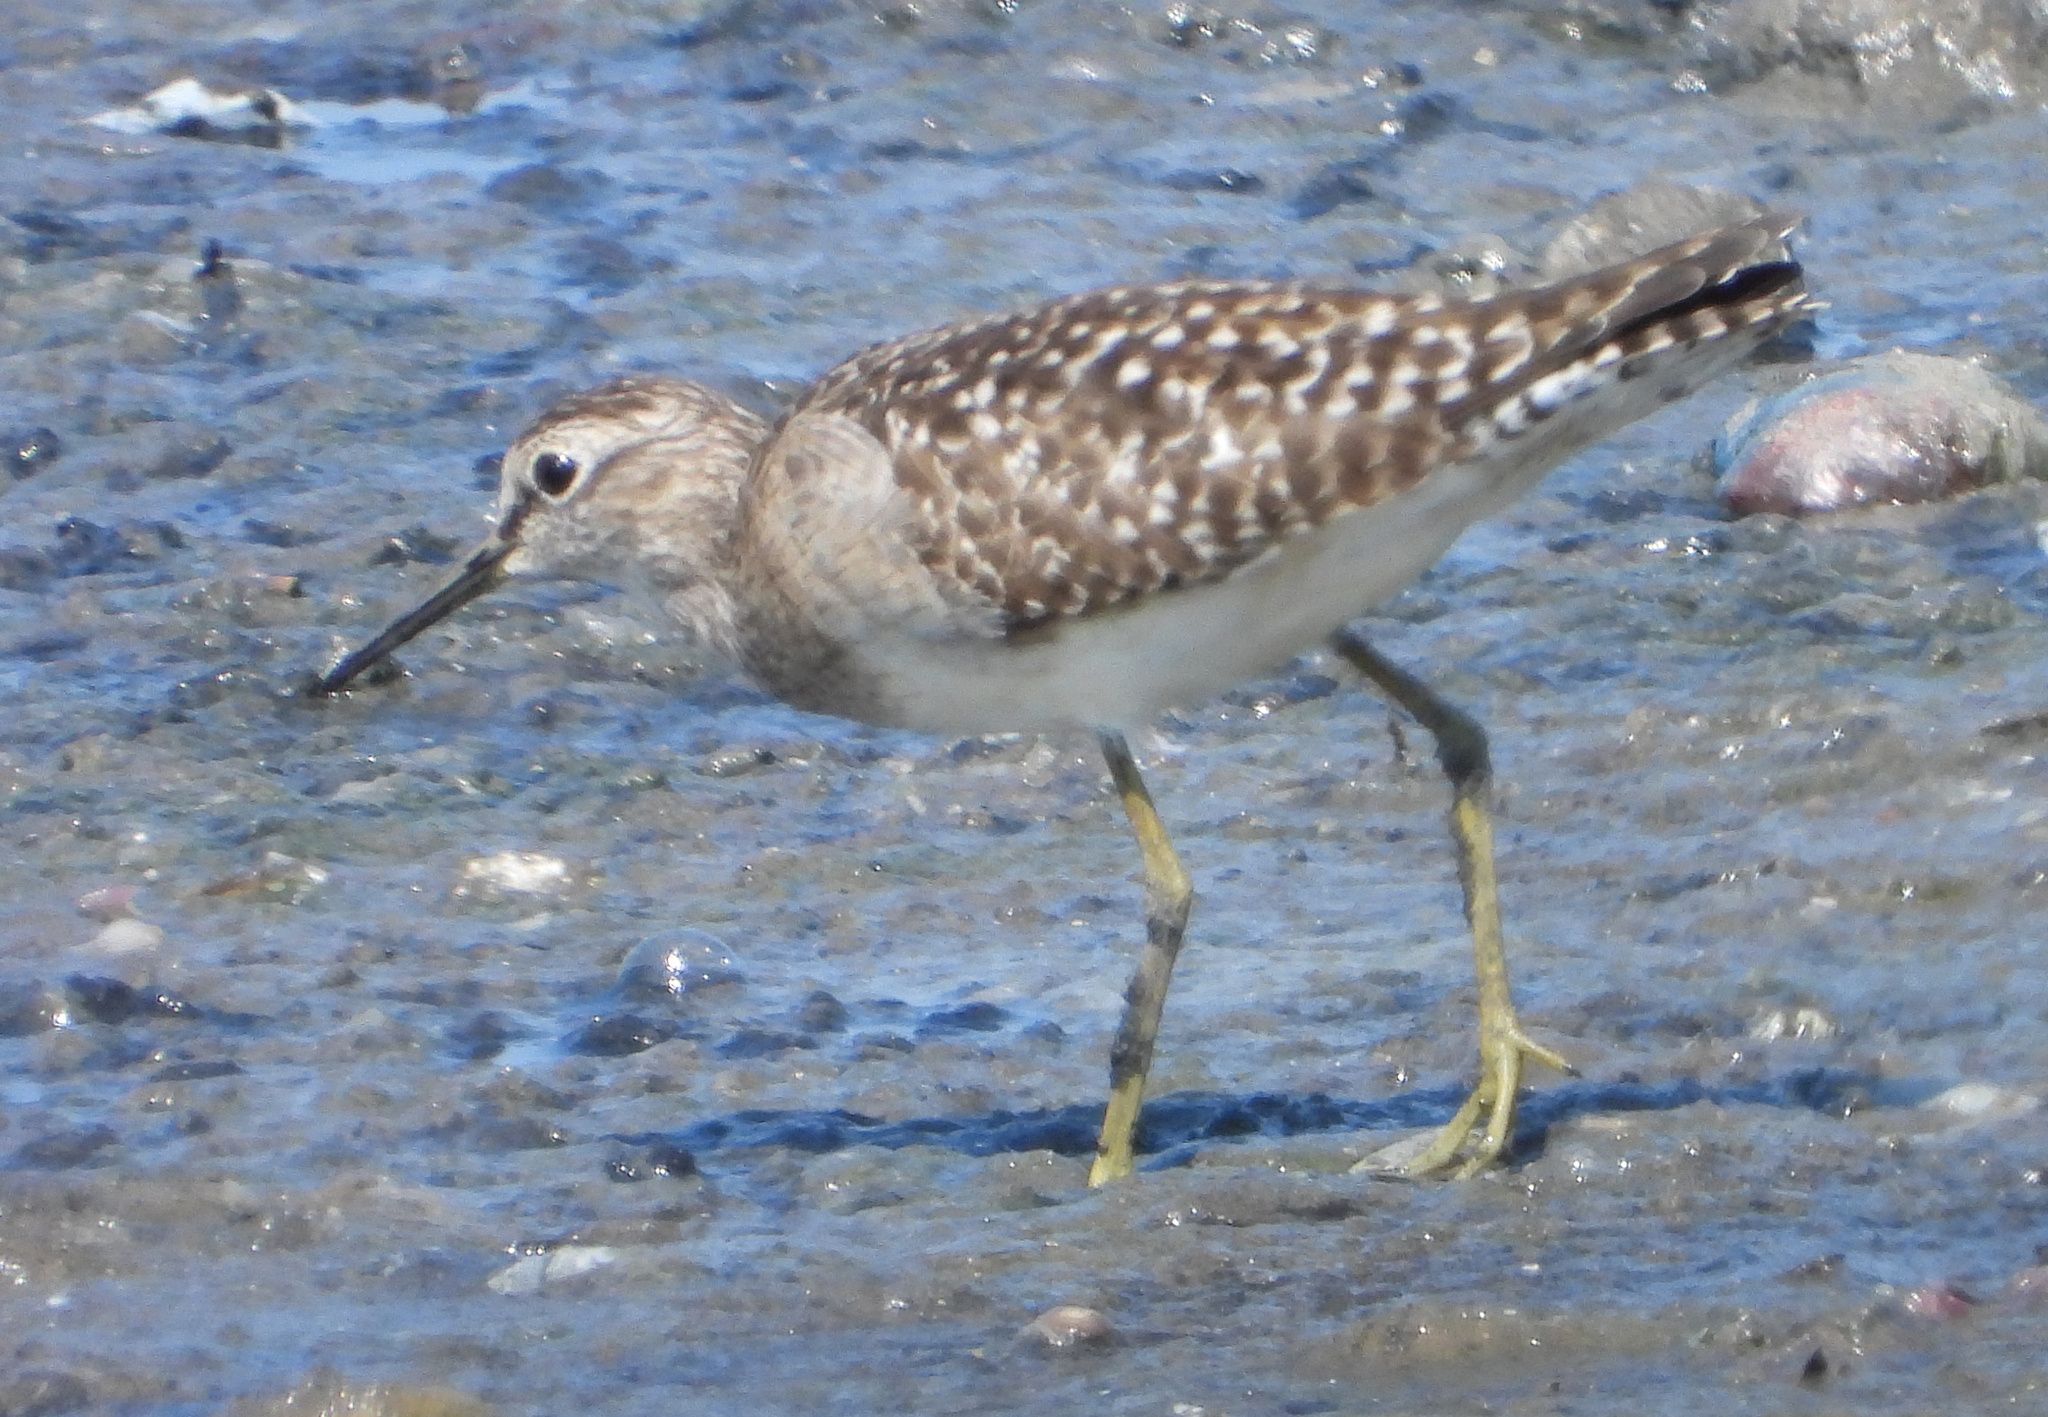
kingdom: Animalia
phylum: Chordata
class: Aves
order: Charadriiformes
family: Scolopacidae
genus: Tringa
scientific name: Tringa glareola
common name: Wood sandpiper
